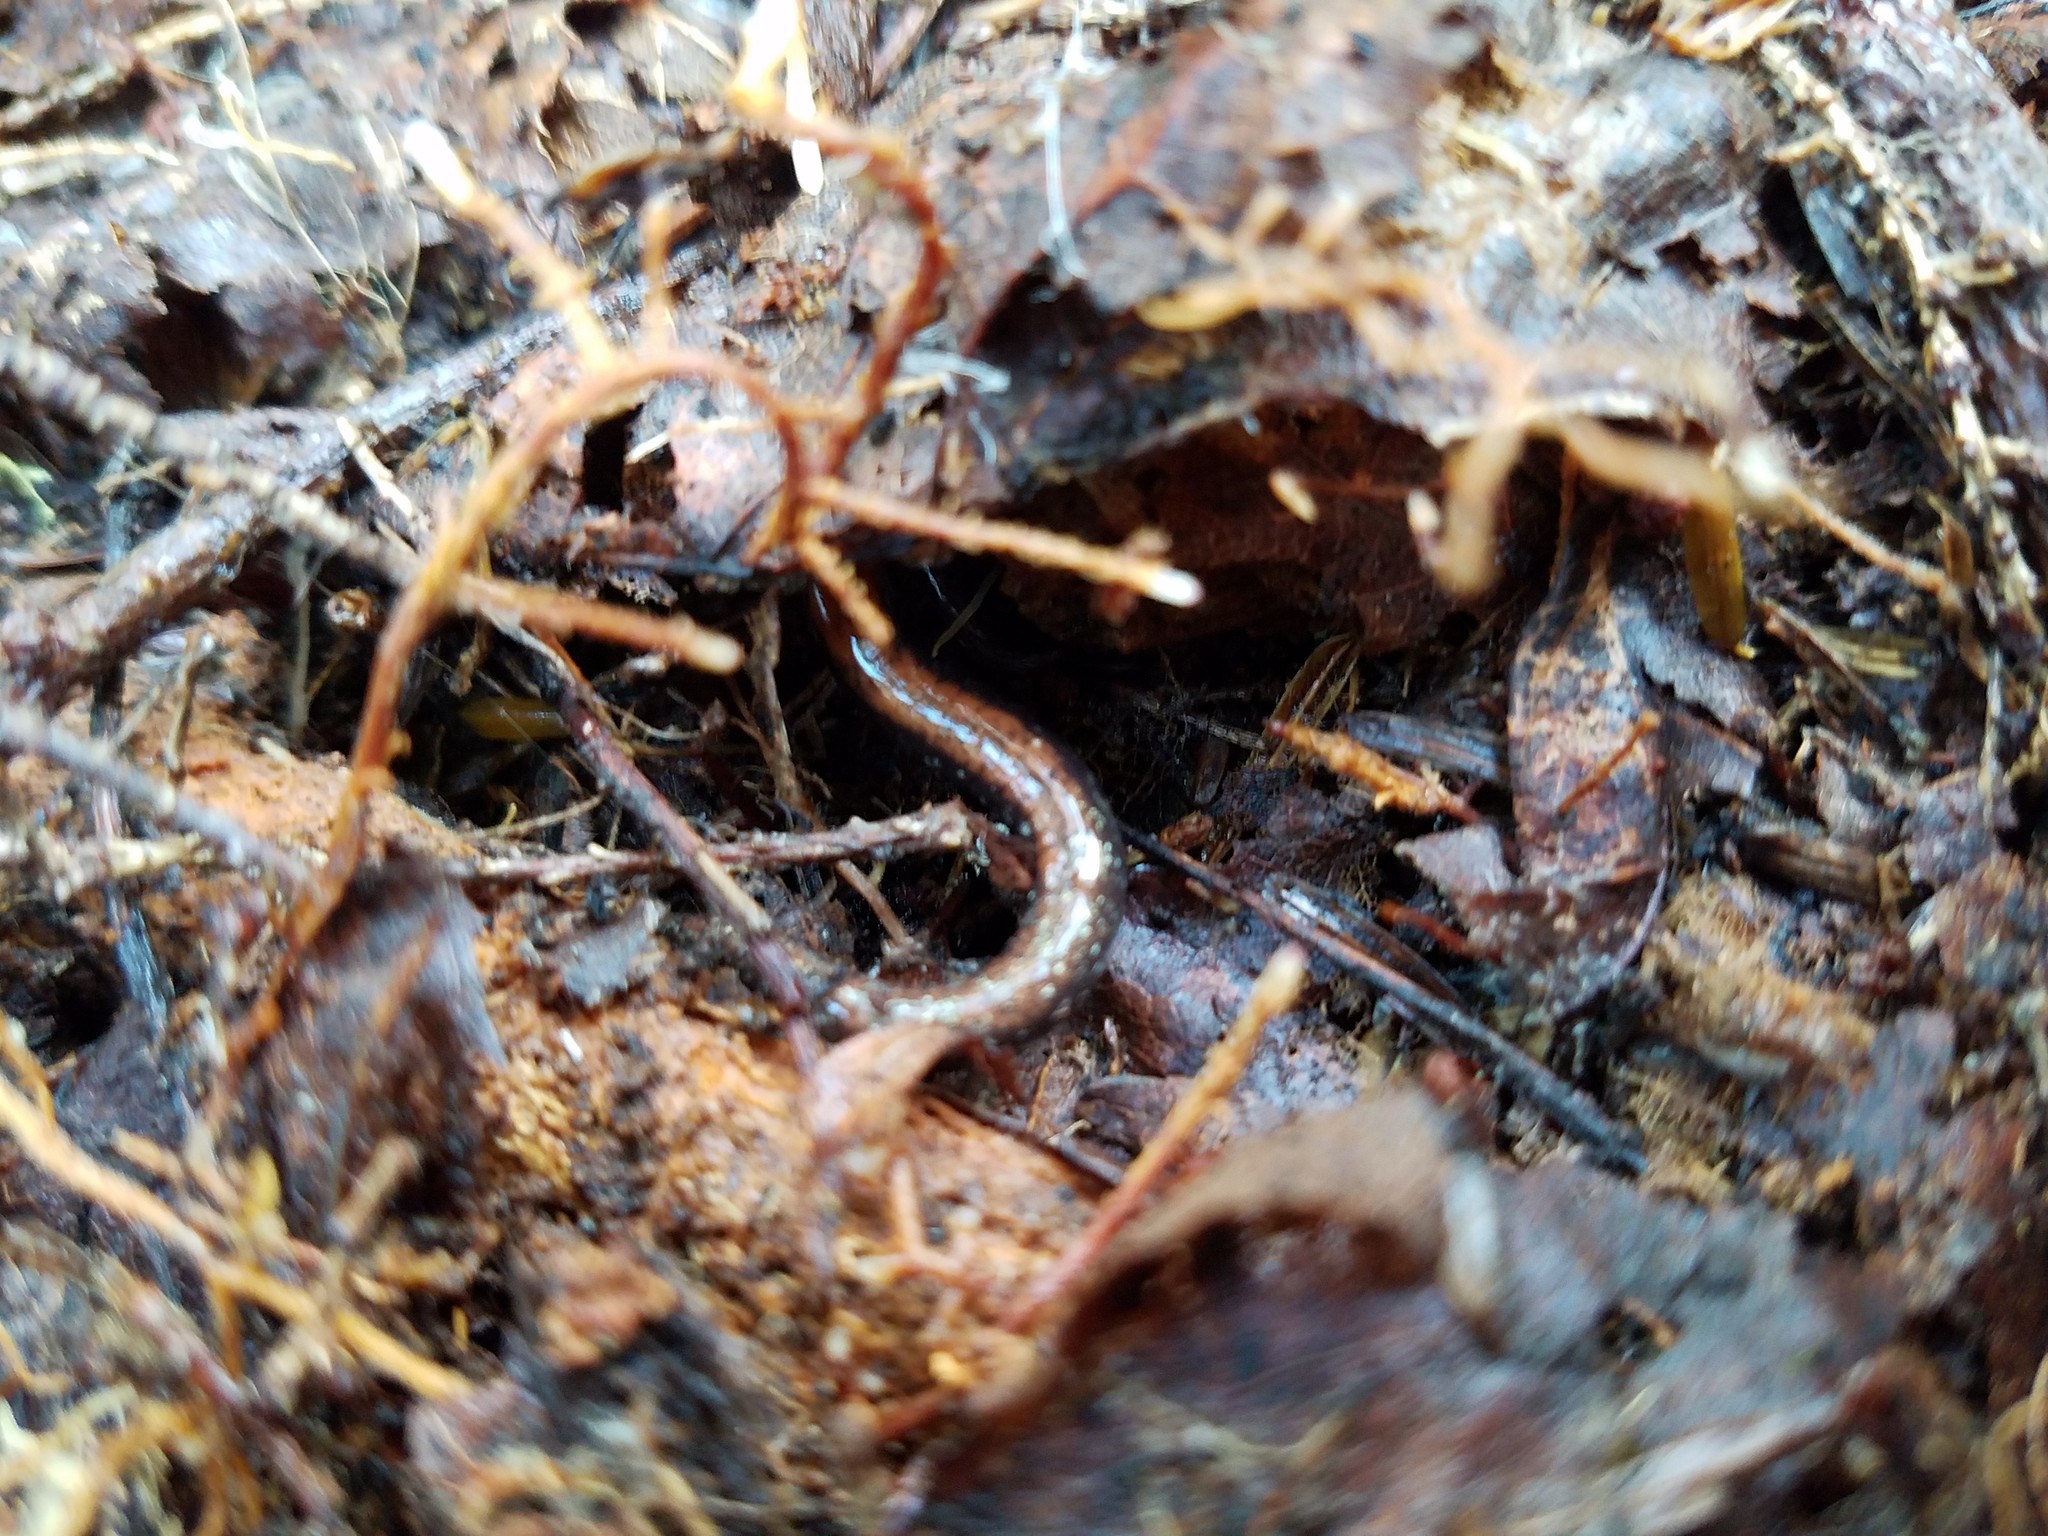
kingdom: Animalia
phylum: Chordata
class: Amphibia
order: Caudata
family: Plethodontidae
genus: Plethodon
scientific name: Plethodon cinereus
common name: Redback salamander
